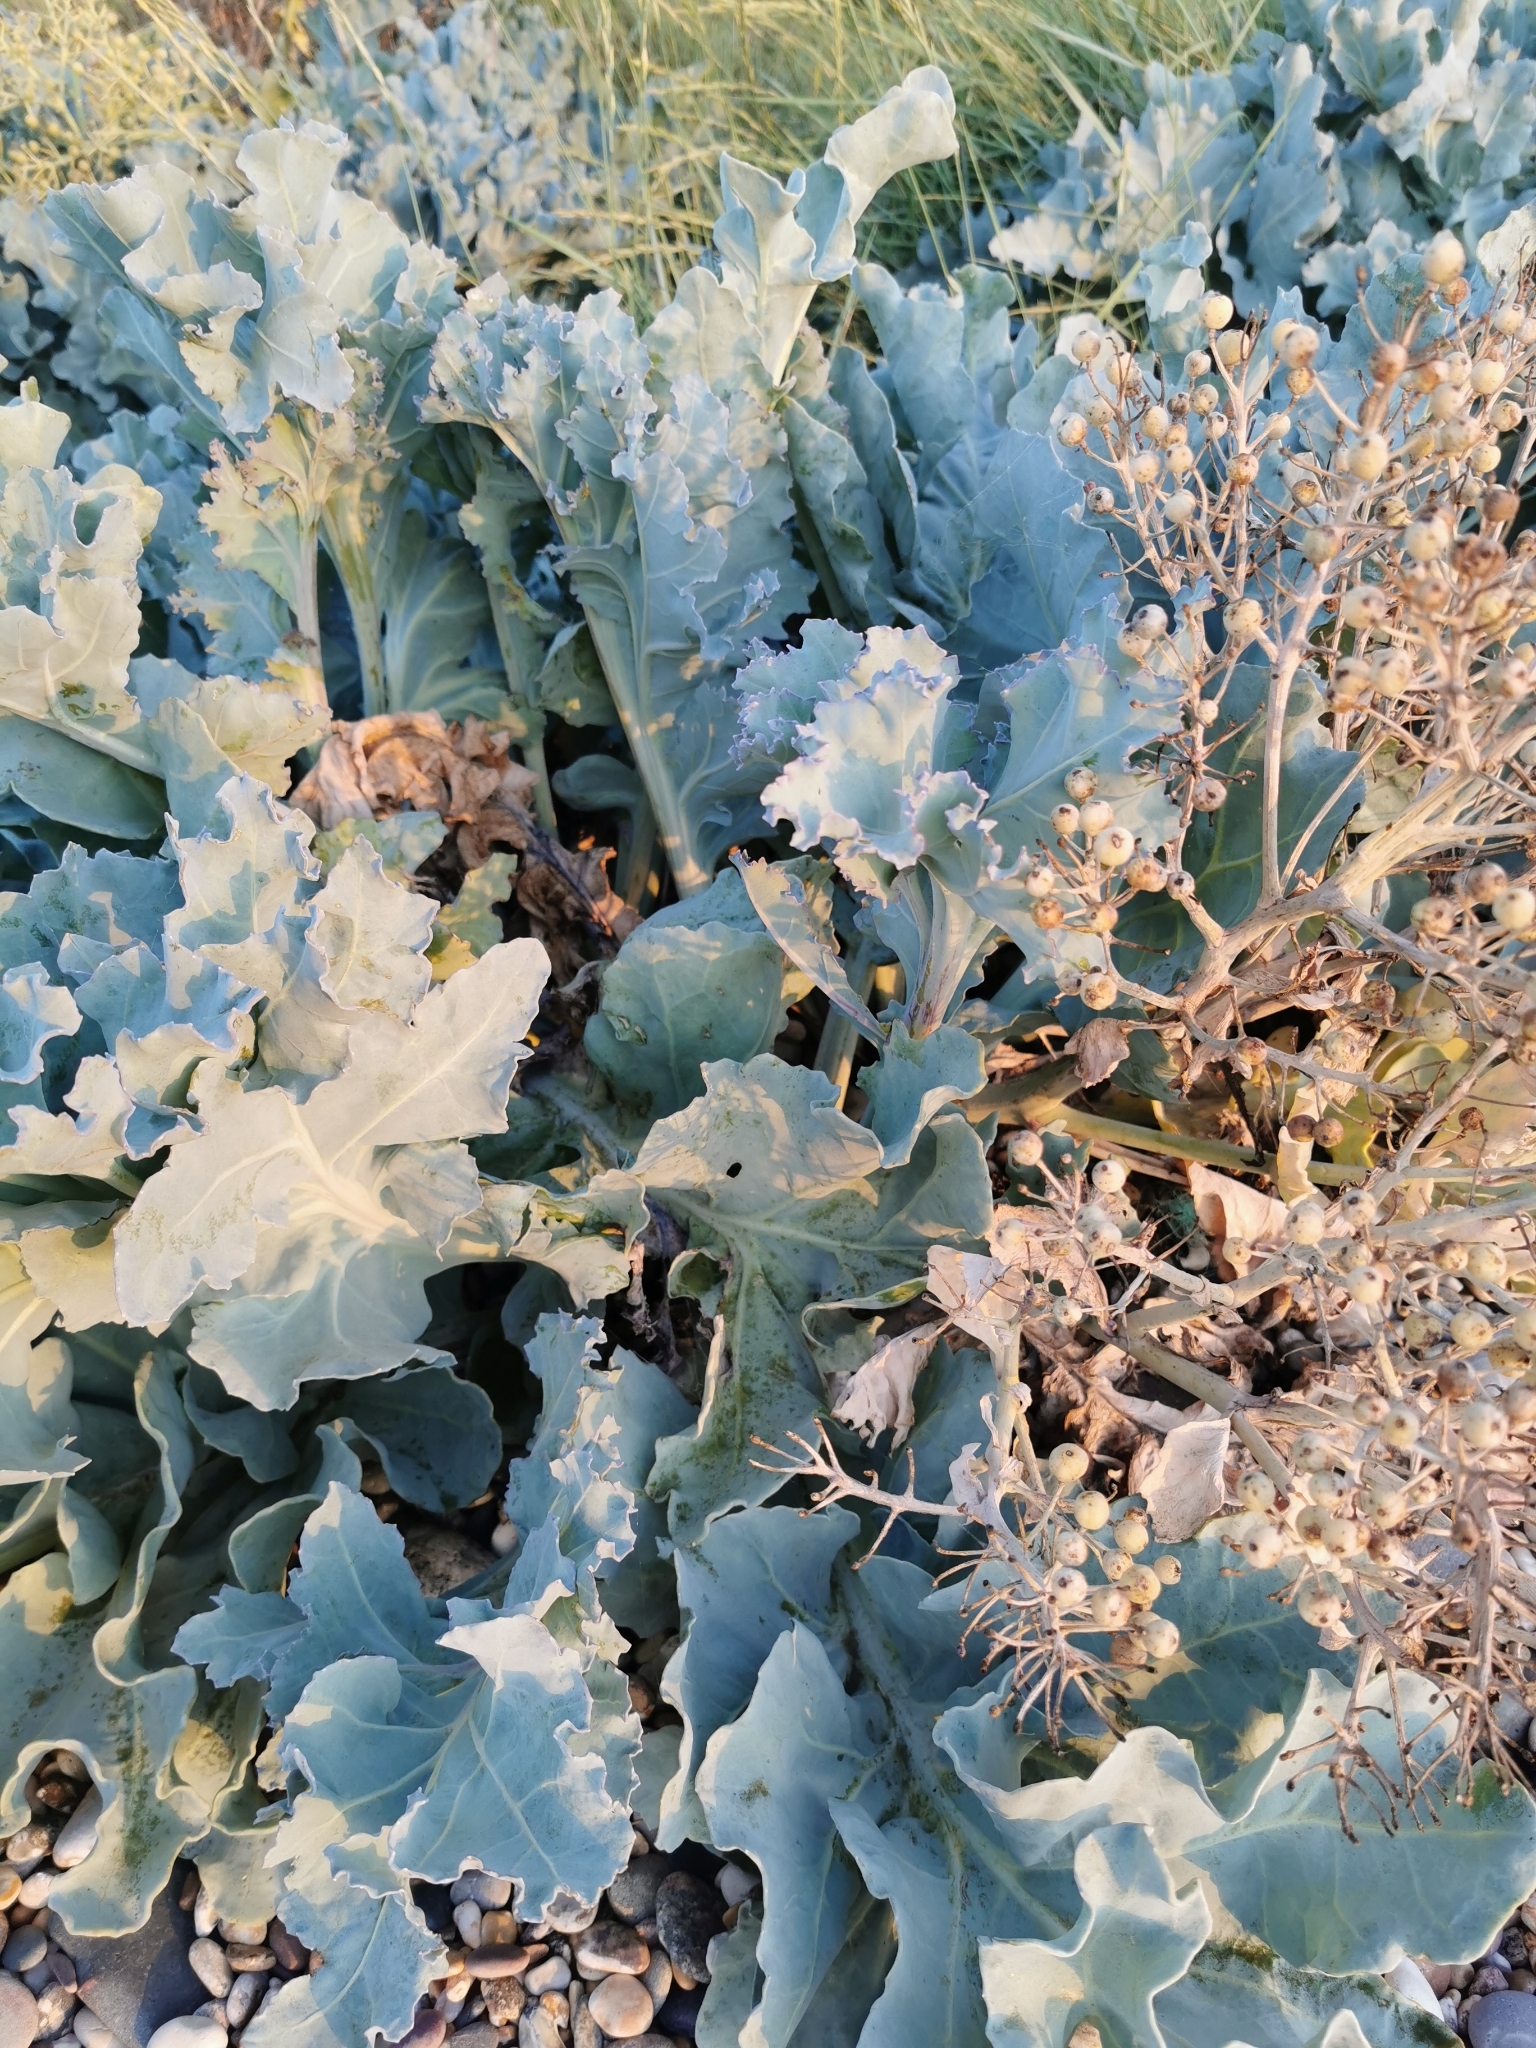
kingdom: Plantae
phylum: Tracheophyta
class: Magnoliopsida
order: Brassicales
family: Brassicaceae
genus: Crambe
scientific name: Crambe maritima
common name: Sea-kale
